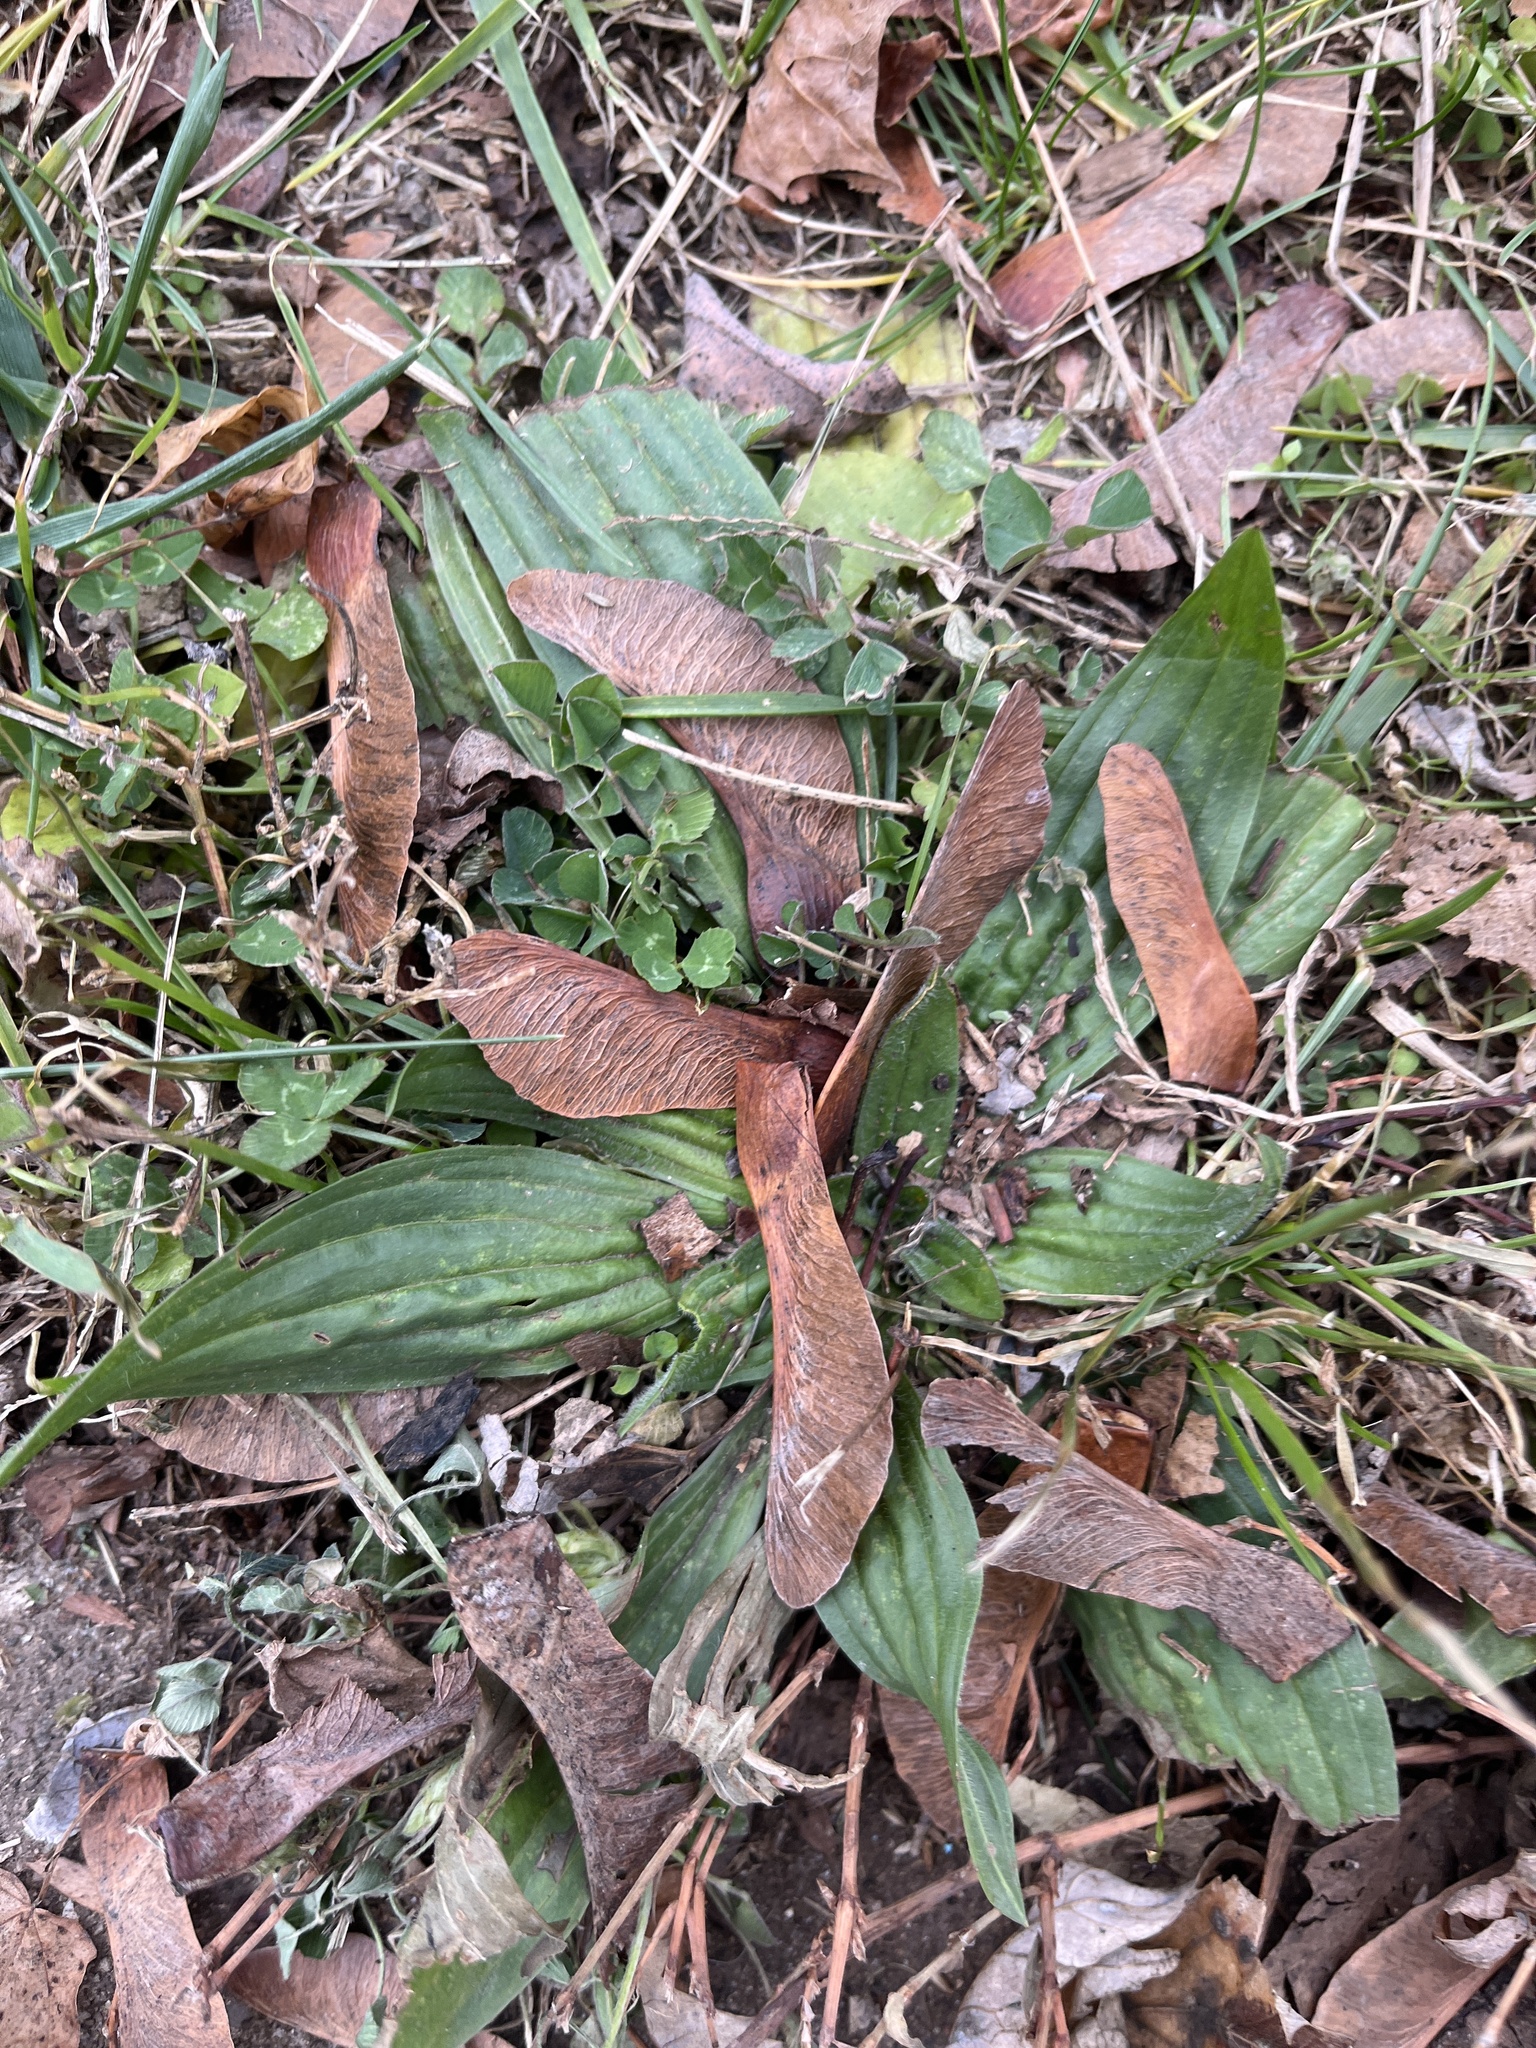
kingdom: Plantae
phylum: Tracheophyta
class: Magnoliopsida
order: Lamiales
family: Plantaginaceae
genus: Plantago
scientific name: Plantago lanceolata
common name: Ribwort plantain
